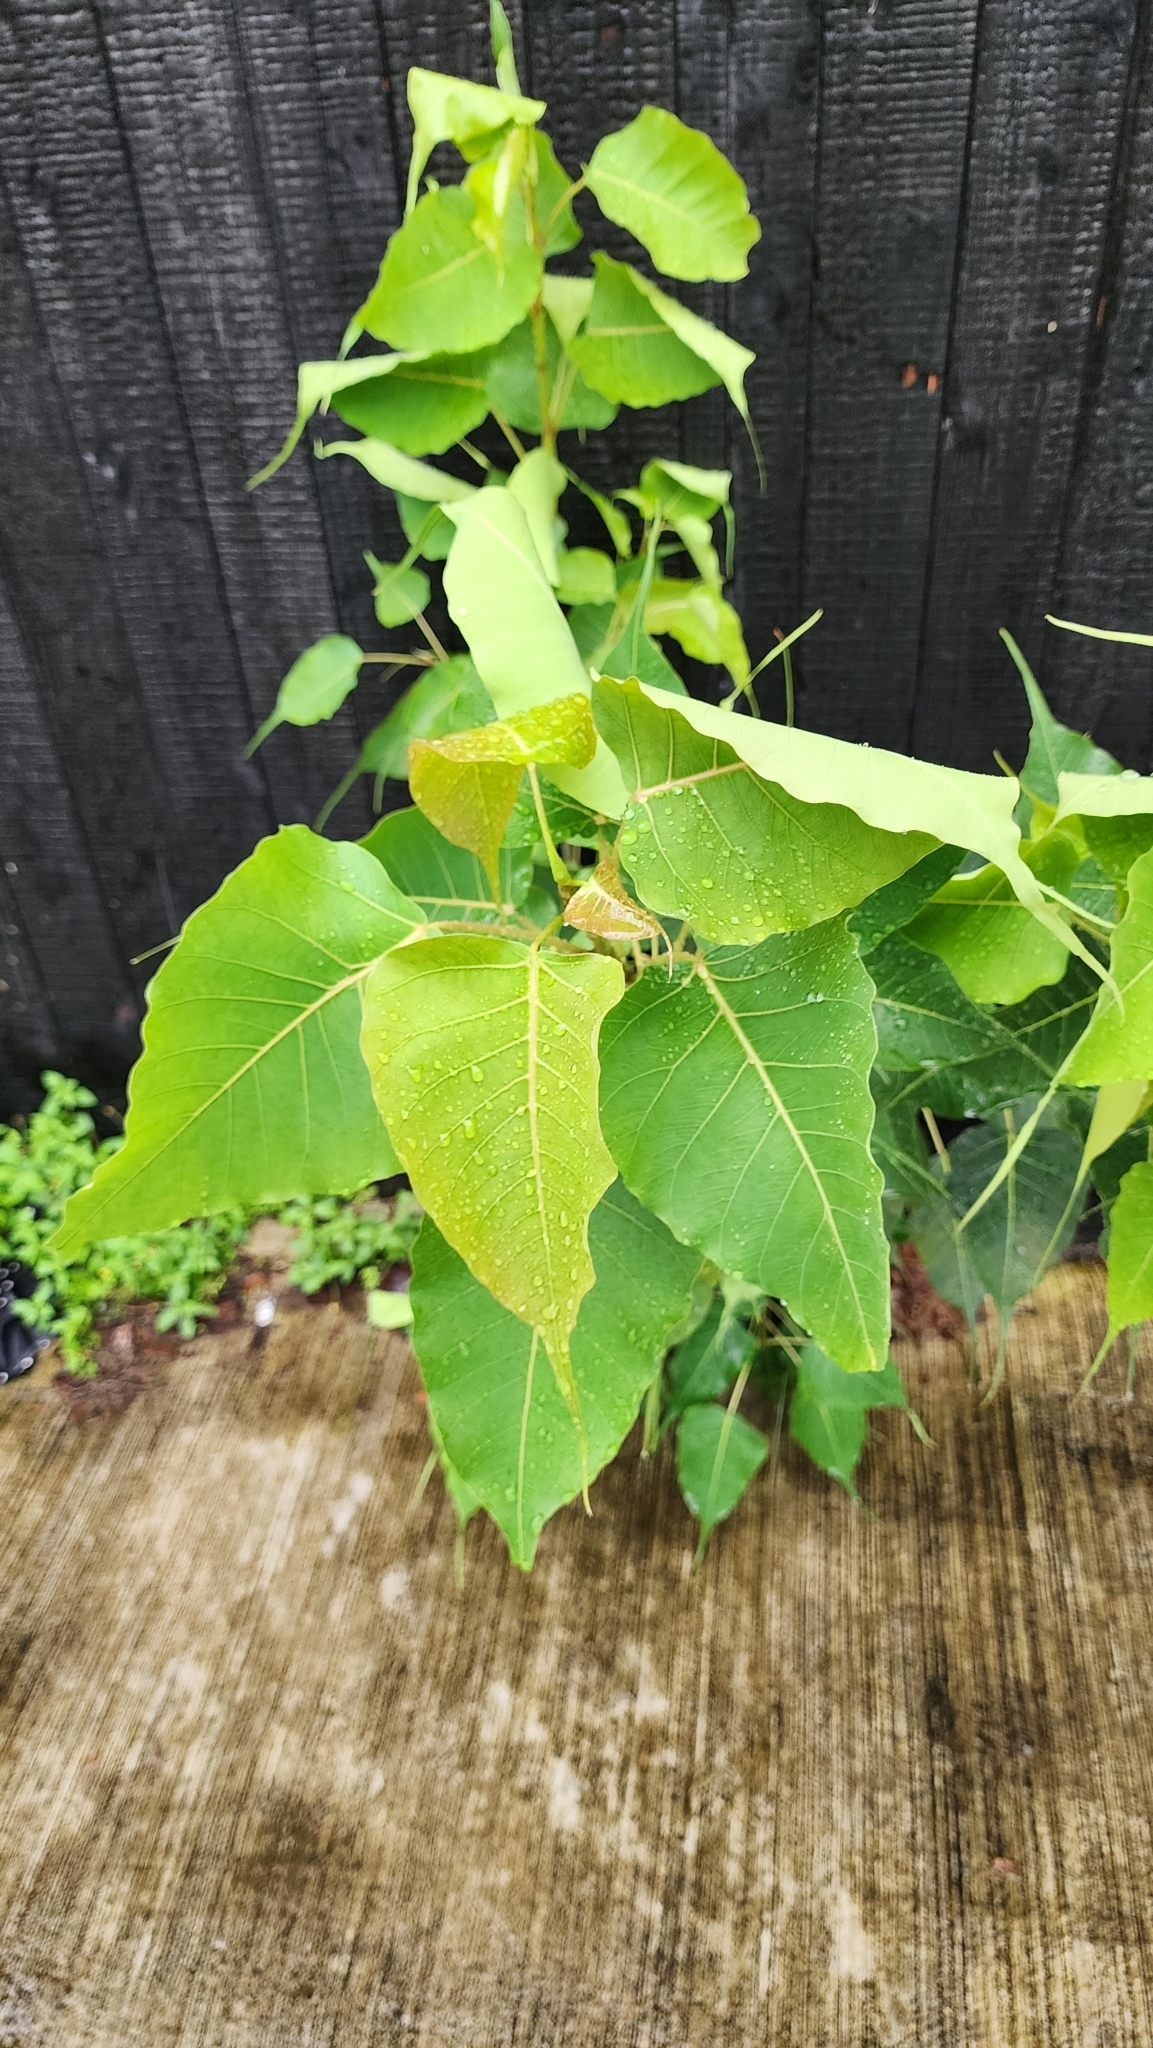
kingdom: Plantae
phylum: Tracheophyta
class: Magnoliopsida
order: Rosales
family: Moraceae
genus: Ficus
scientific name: Ficus religiosa
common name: Bodhi tree
